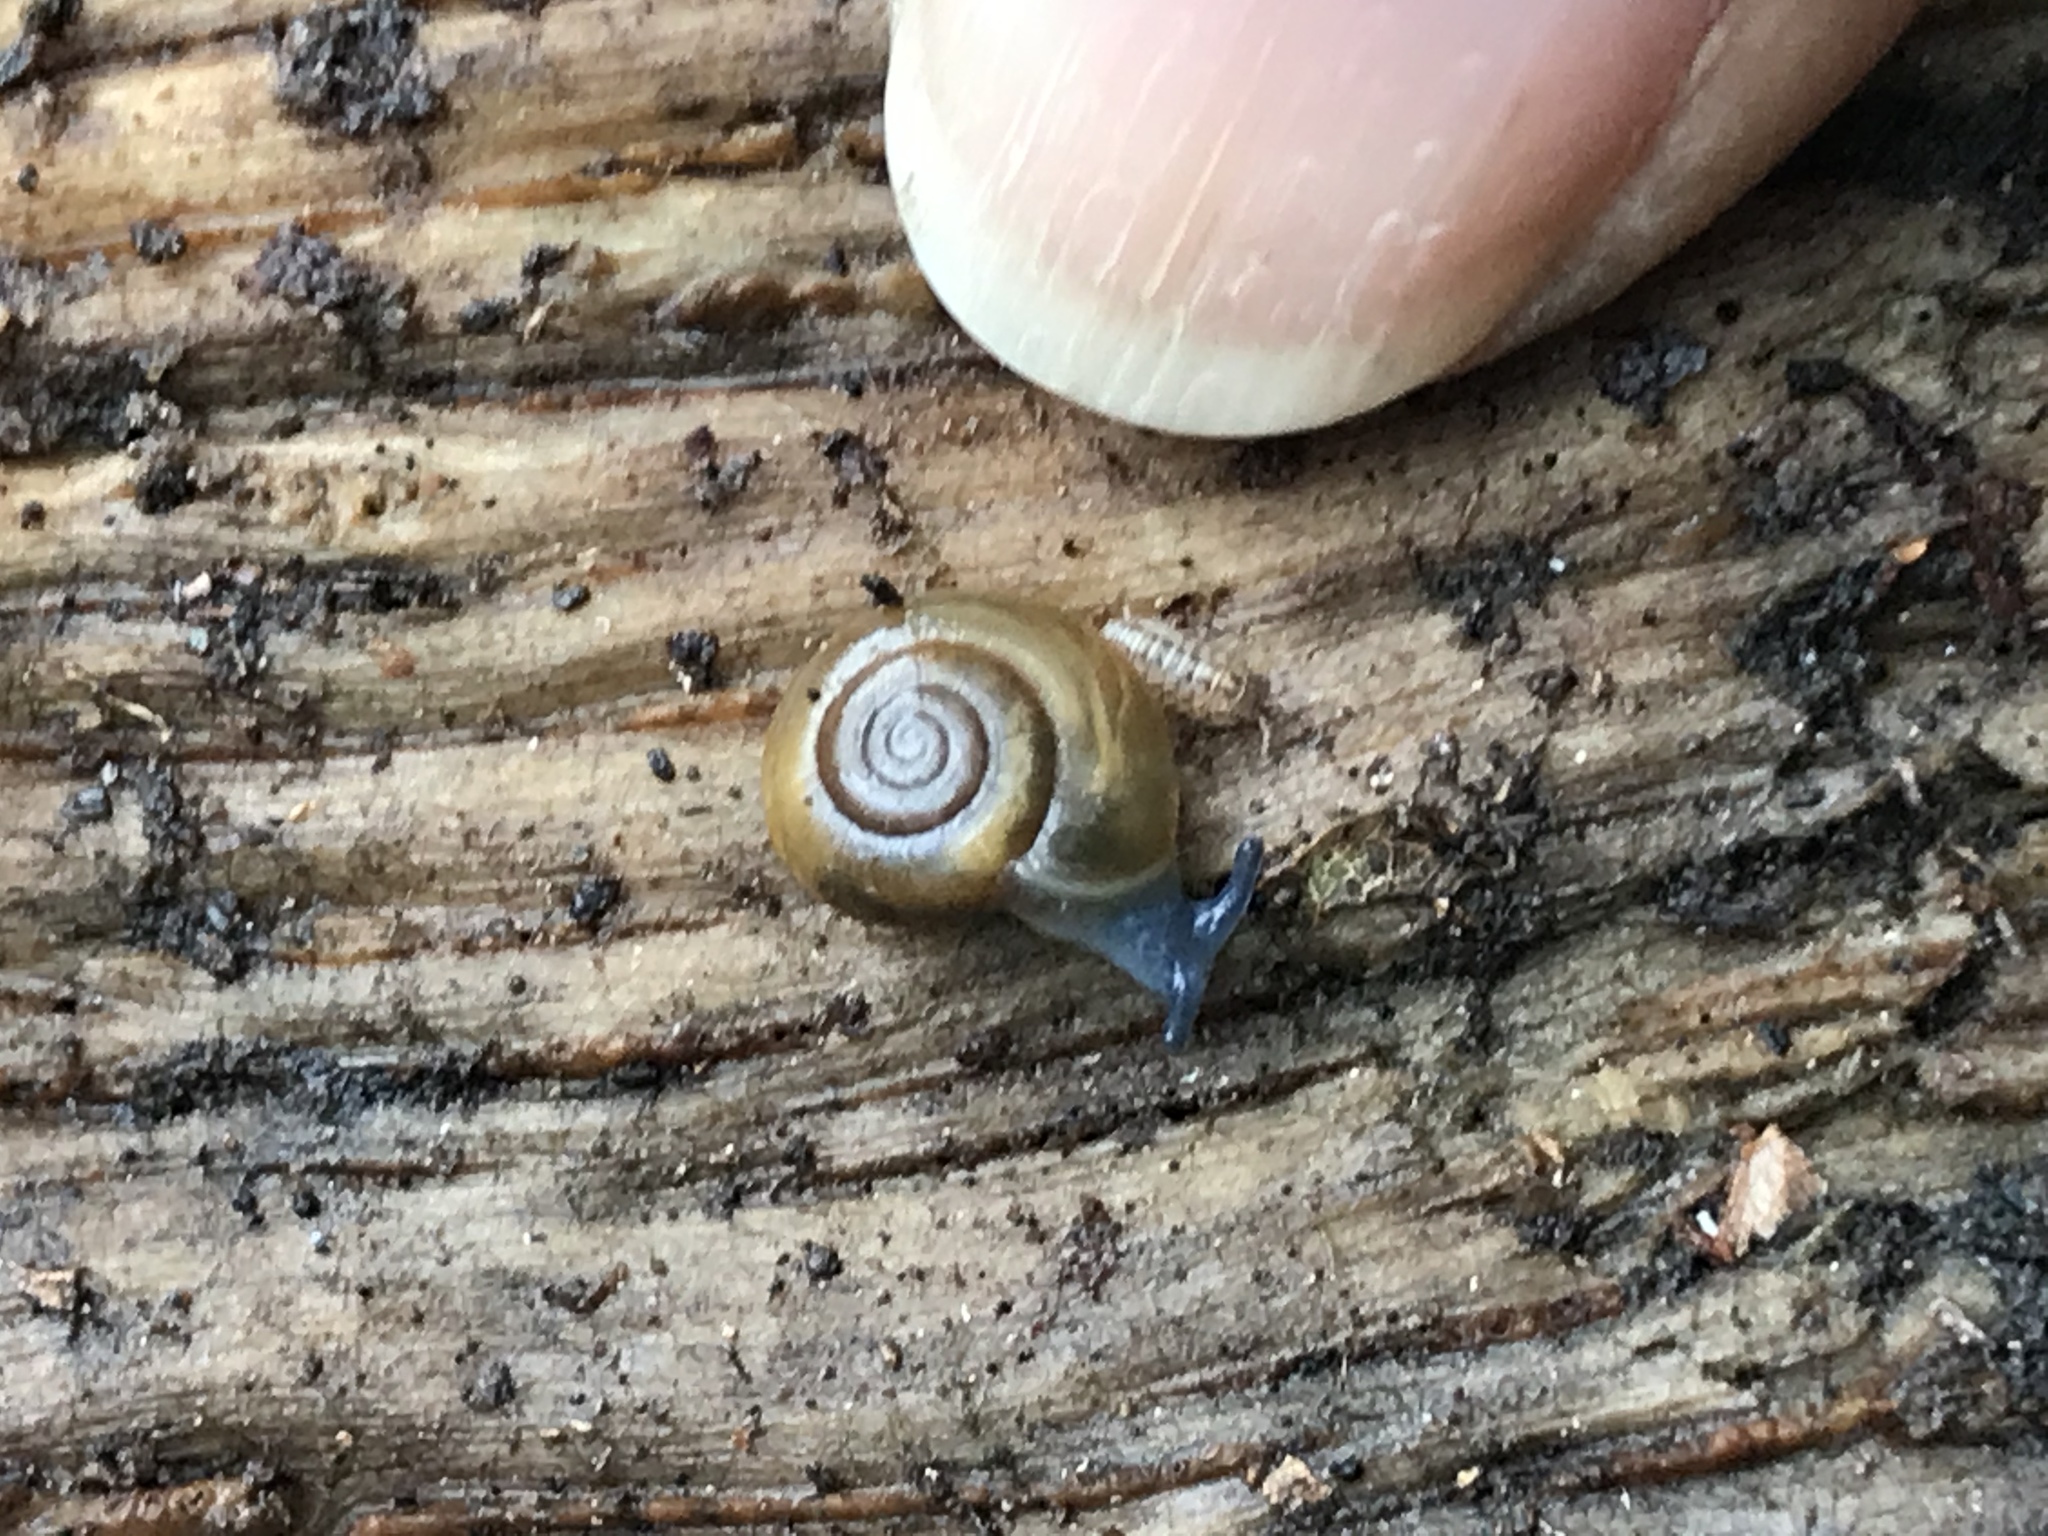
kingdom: Animalia
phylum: Mollusca
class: Gastropoda
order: Stylommatophora
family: Oxychilidae
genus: Oxychilus
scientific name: Oxychilus draparnaudi
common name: Draparnaud's glass snail
